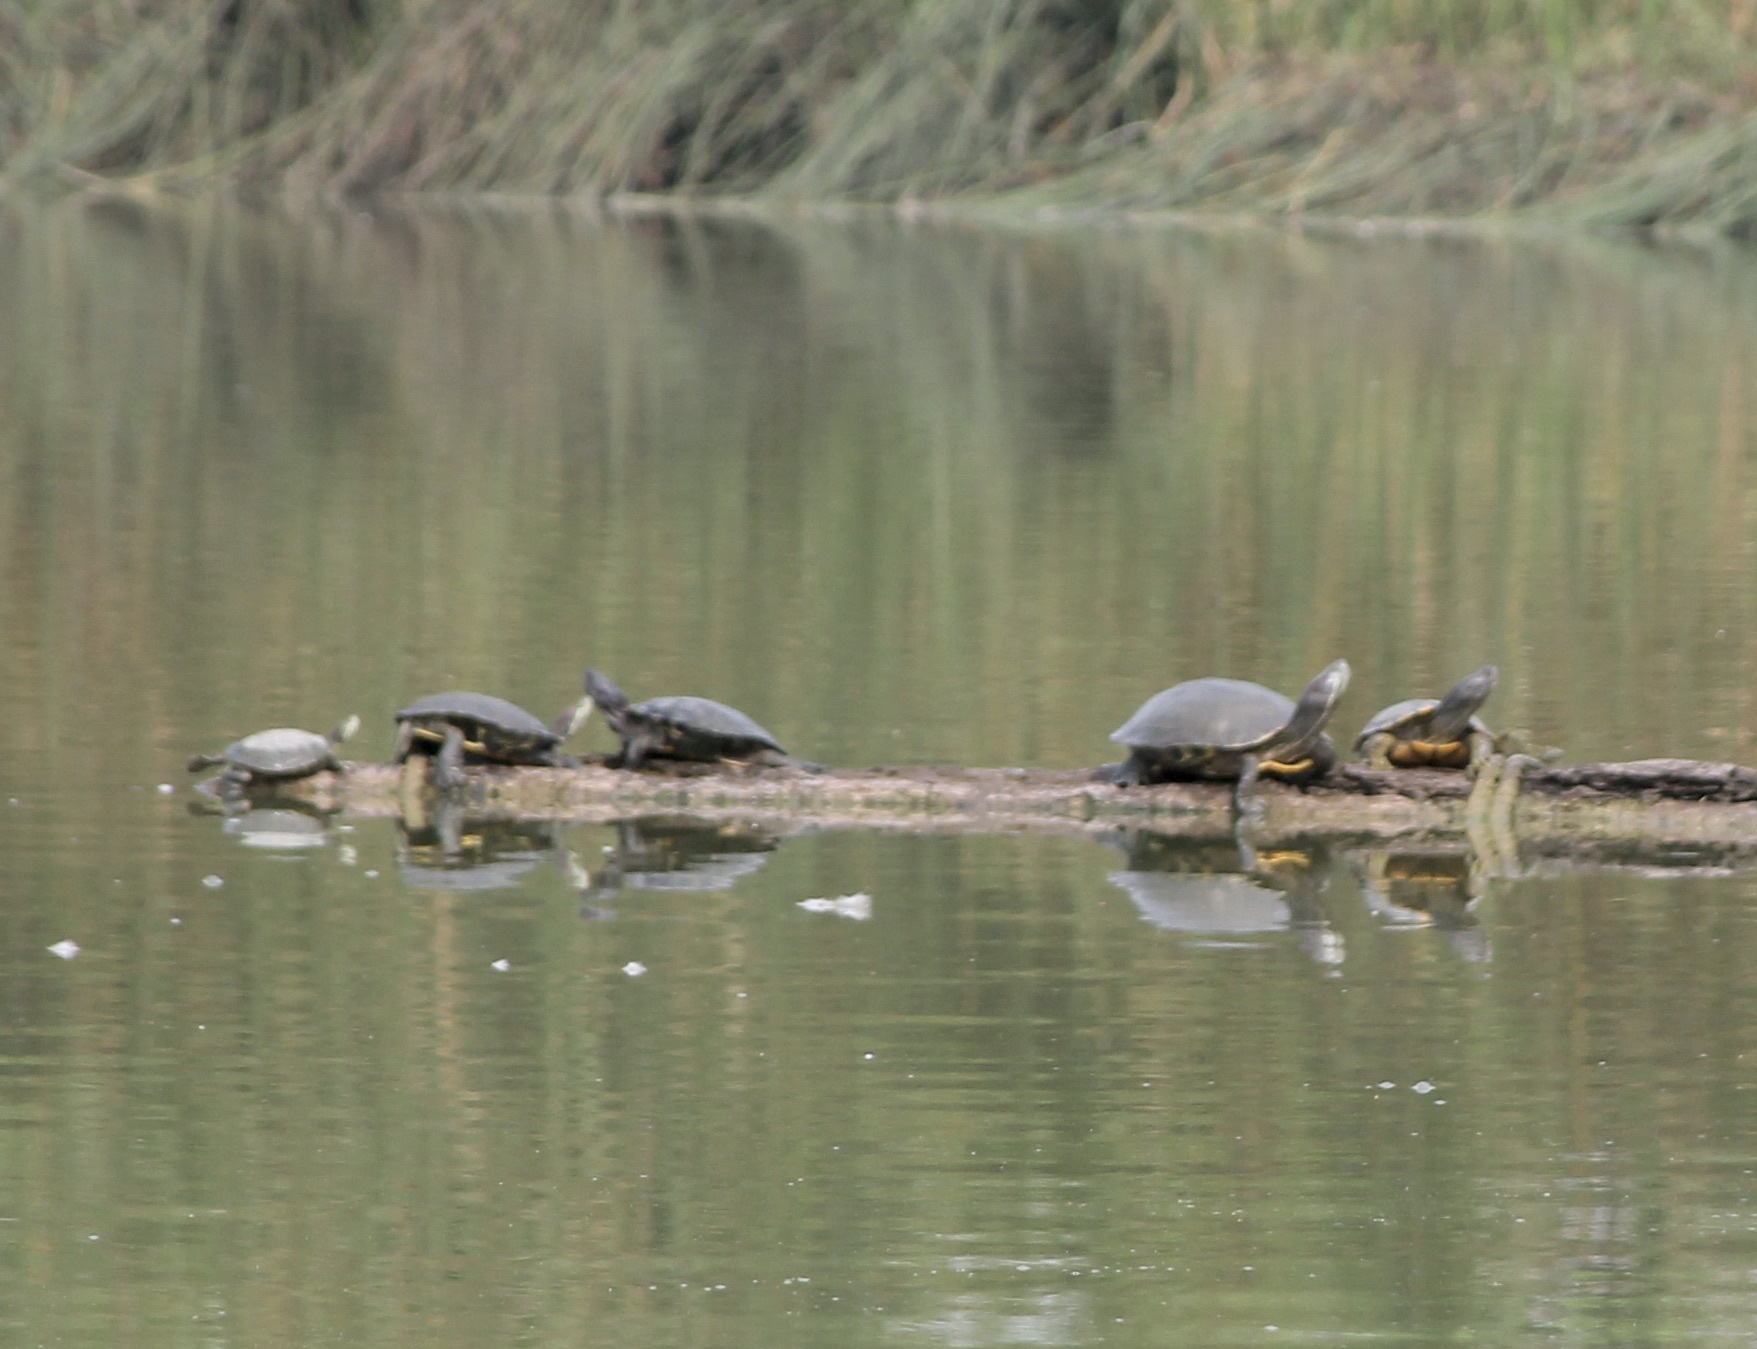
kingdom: Animalia
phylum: Chordata
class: Testudines
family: Emydidae
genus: Trachemys
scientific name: Trachemys scripta
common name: Slider
